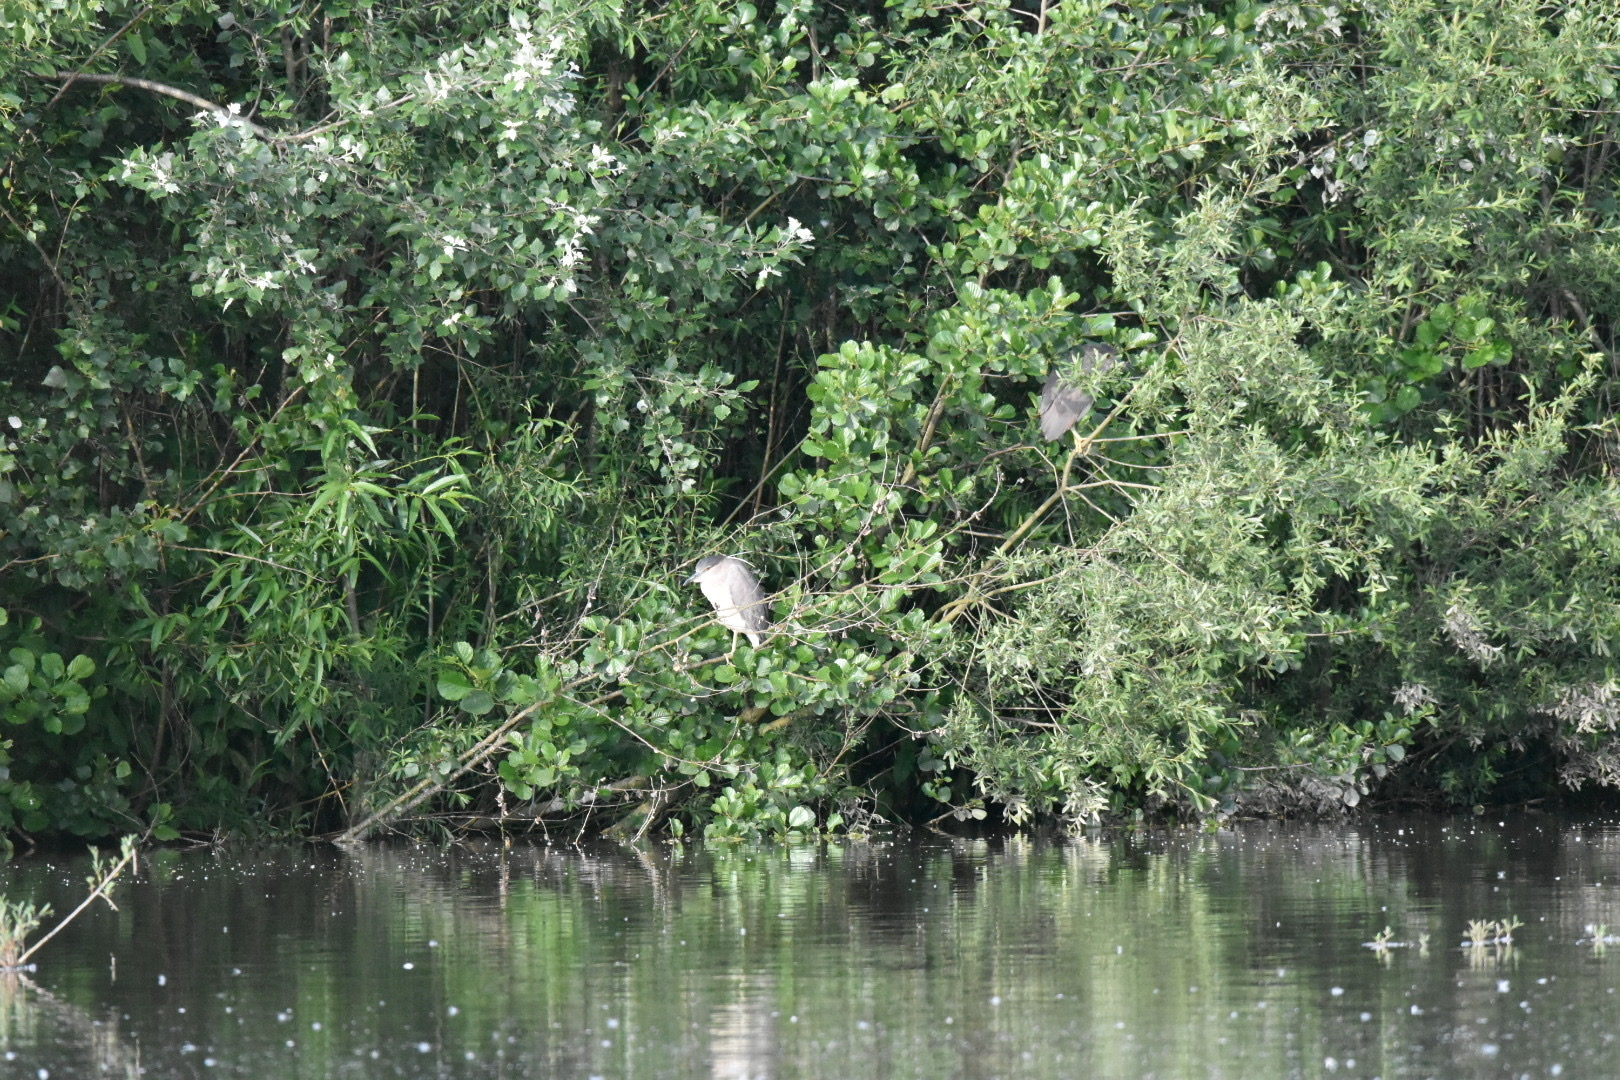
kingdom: Animalia
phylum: Chordata
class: Aves
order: Pelecaniformes
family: Ardeidae
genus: Nycticorax
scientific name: Nycticorax nycticorax
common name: Black-crowned night heron
